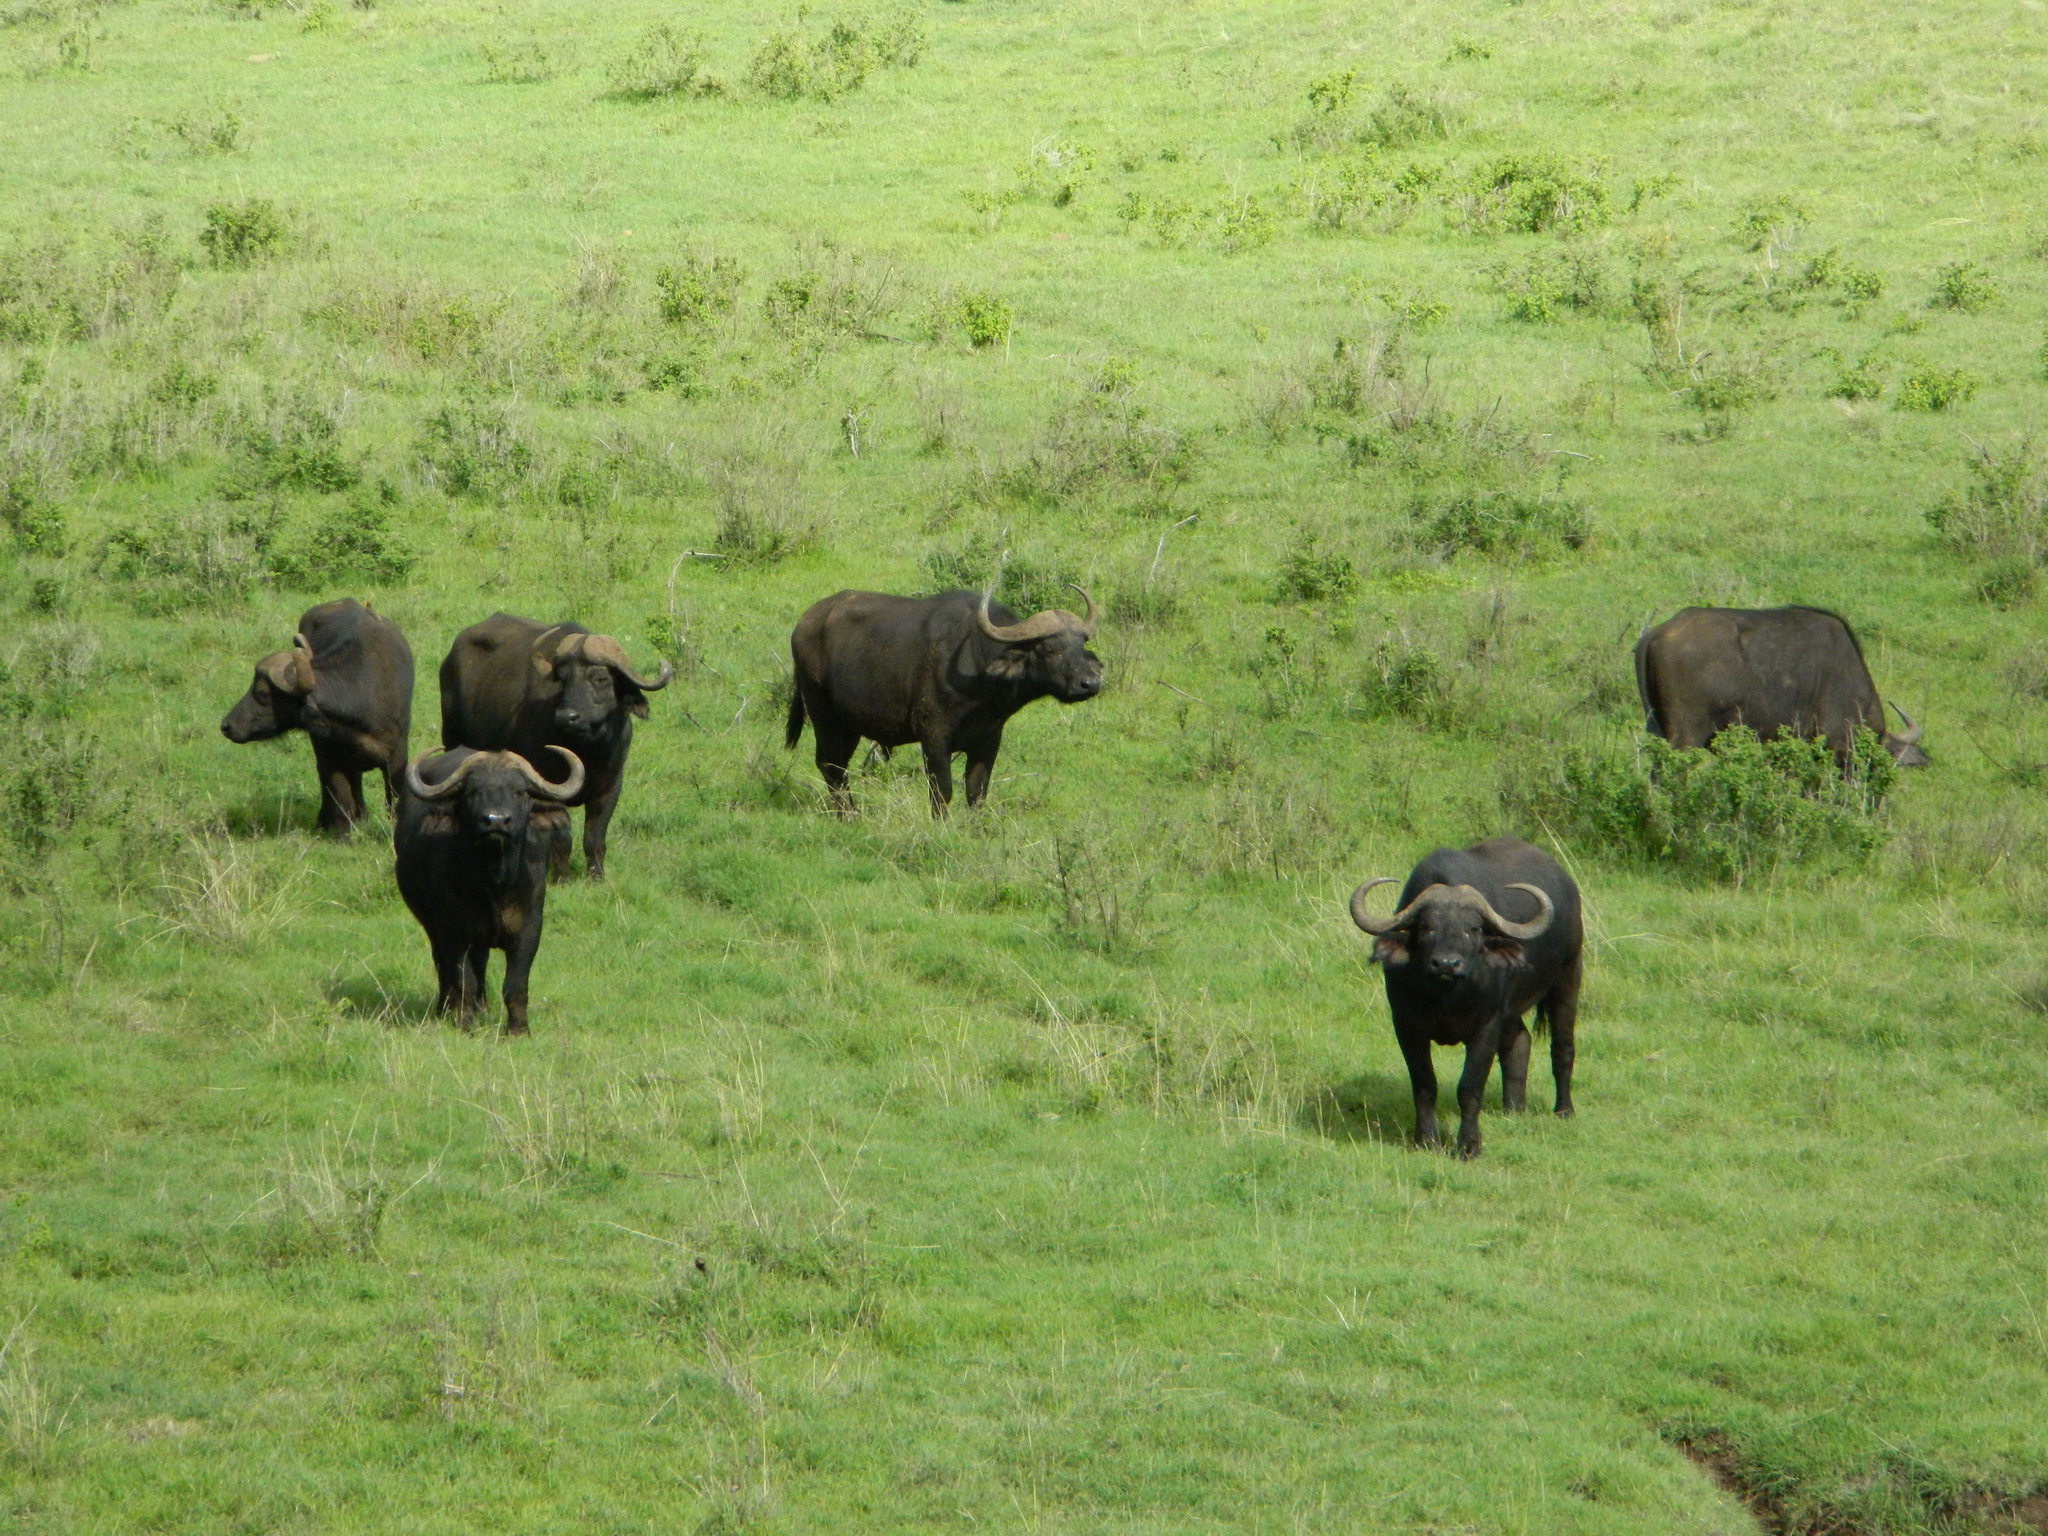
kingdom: Animalia
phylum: Chordata
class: Mammalia
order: Artiodactyla
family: Bovidae
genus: Syncerus
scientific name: Syncerus caffer
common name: African buffalo
